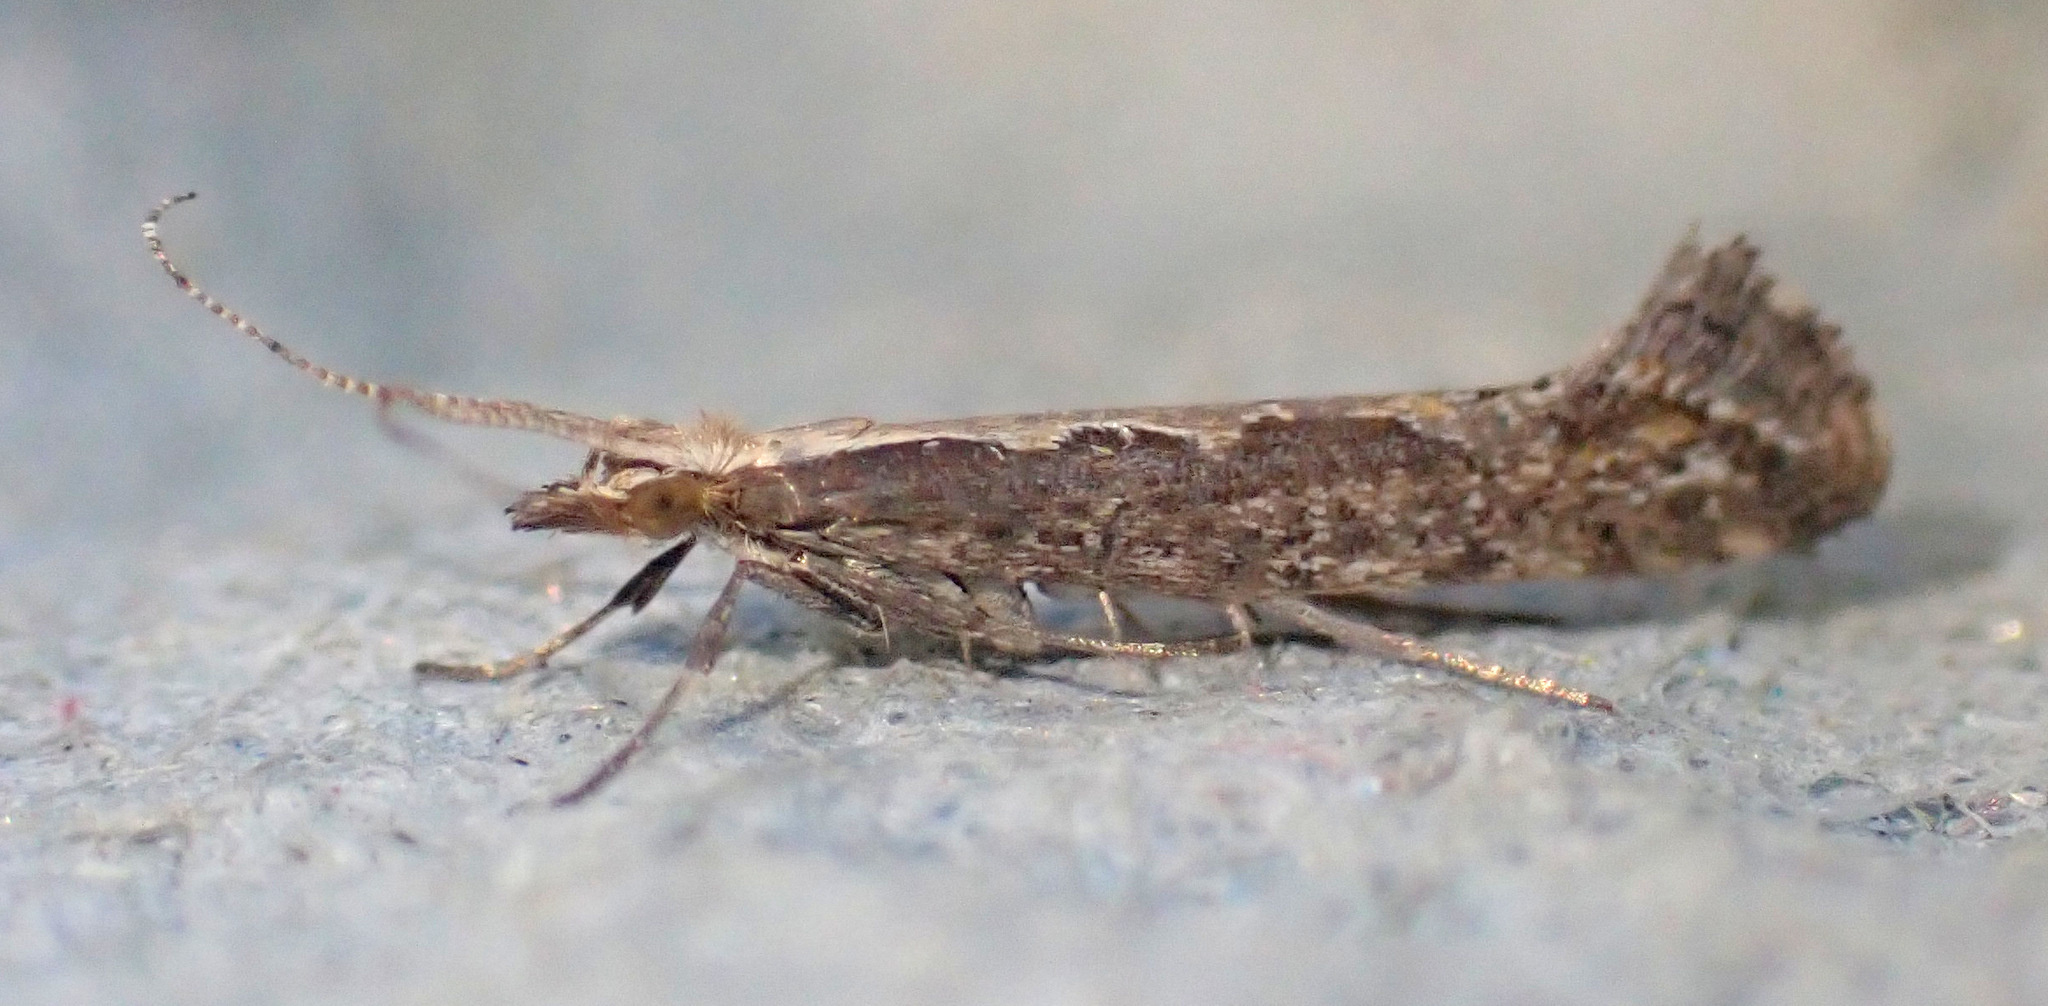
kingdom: Animalia
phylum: Arthropoda
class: Insecta
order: Lepidoptera
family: Plutellidae
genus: Plutella
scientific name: Plutella xylostella
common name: Diamond-back moth
